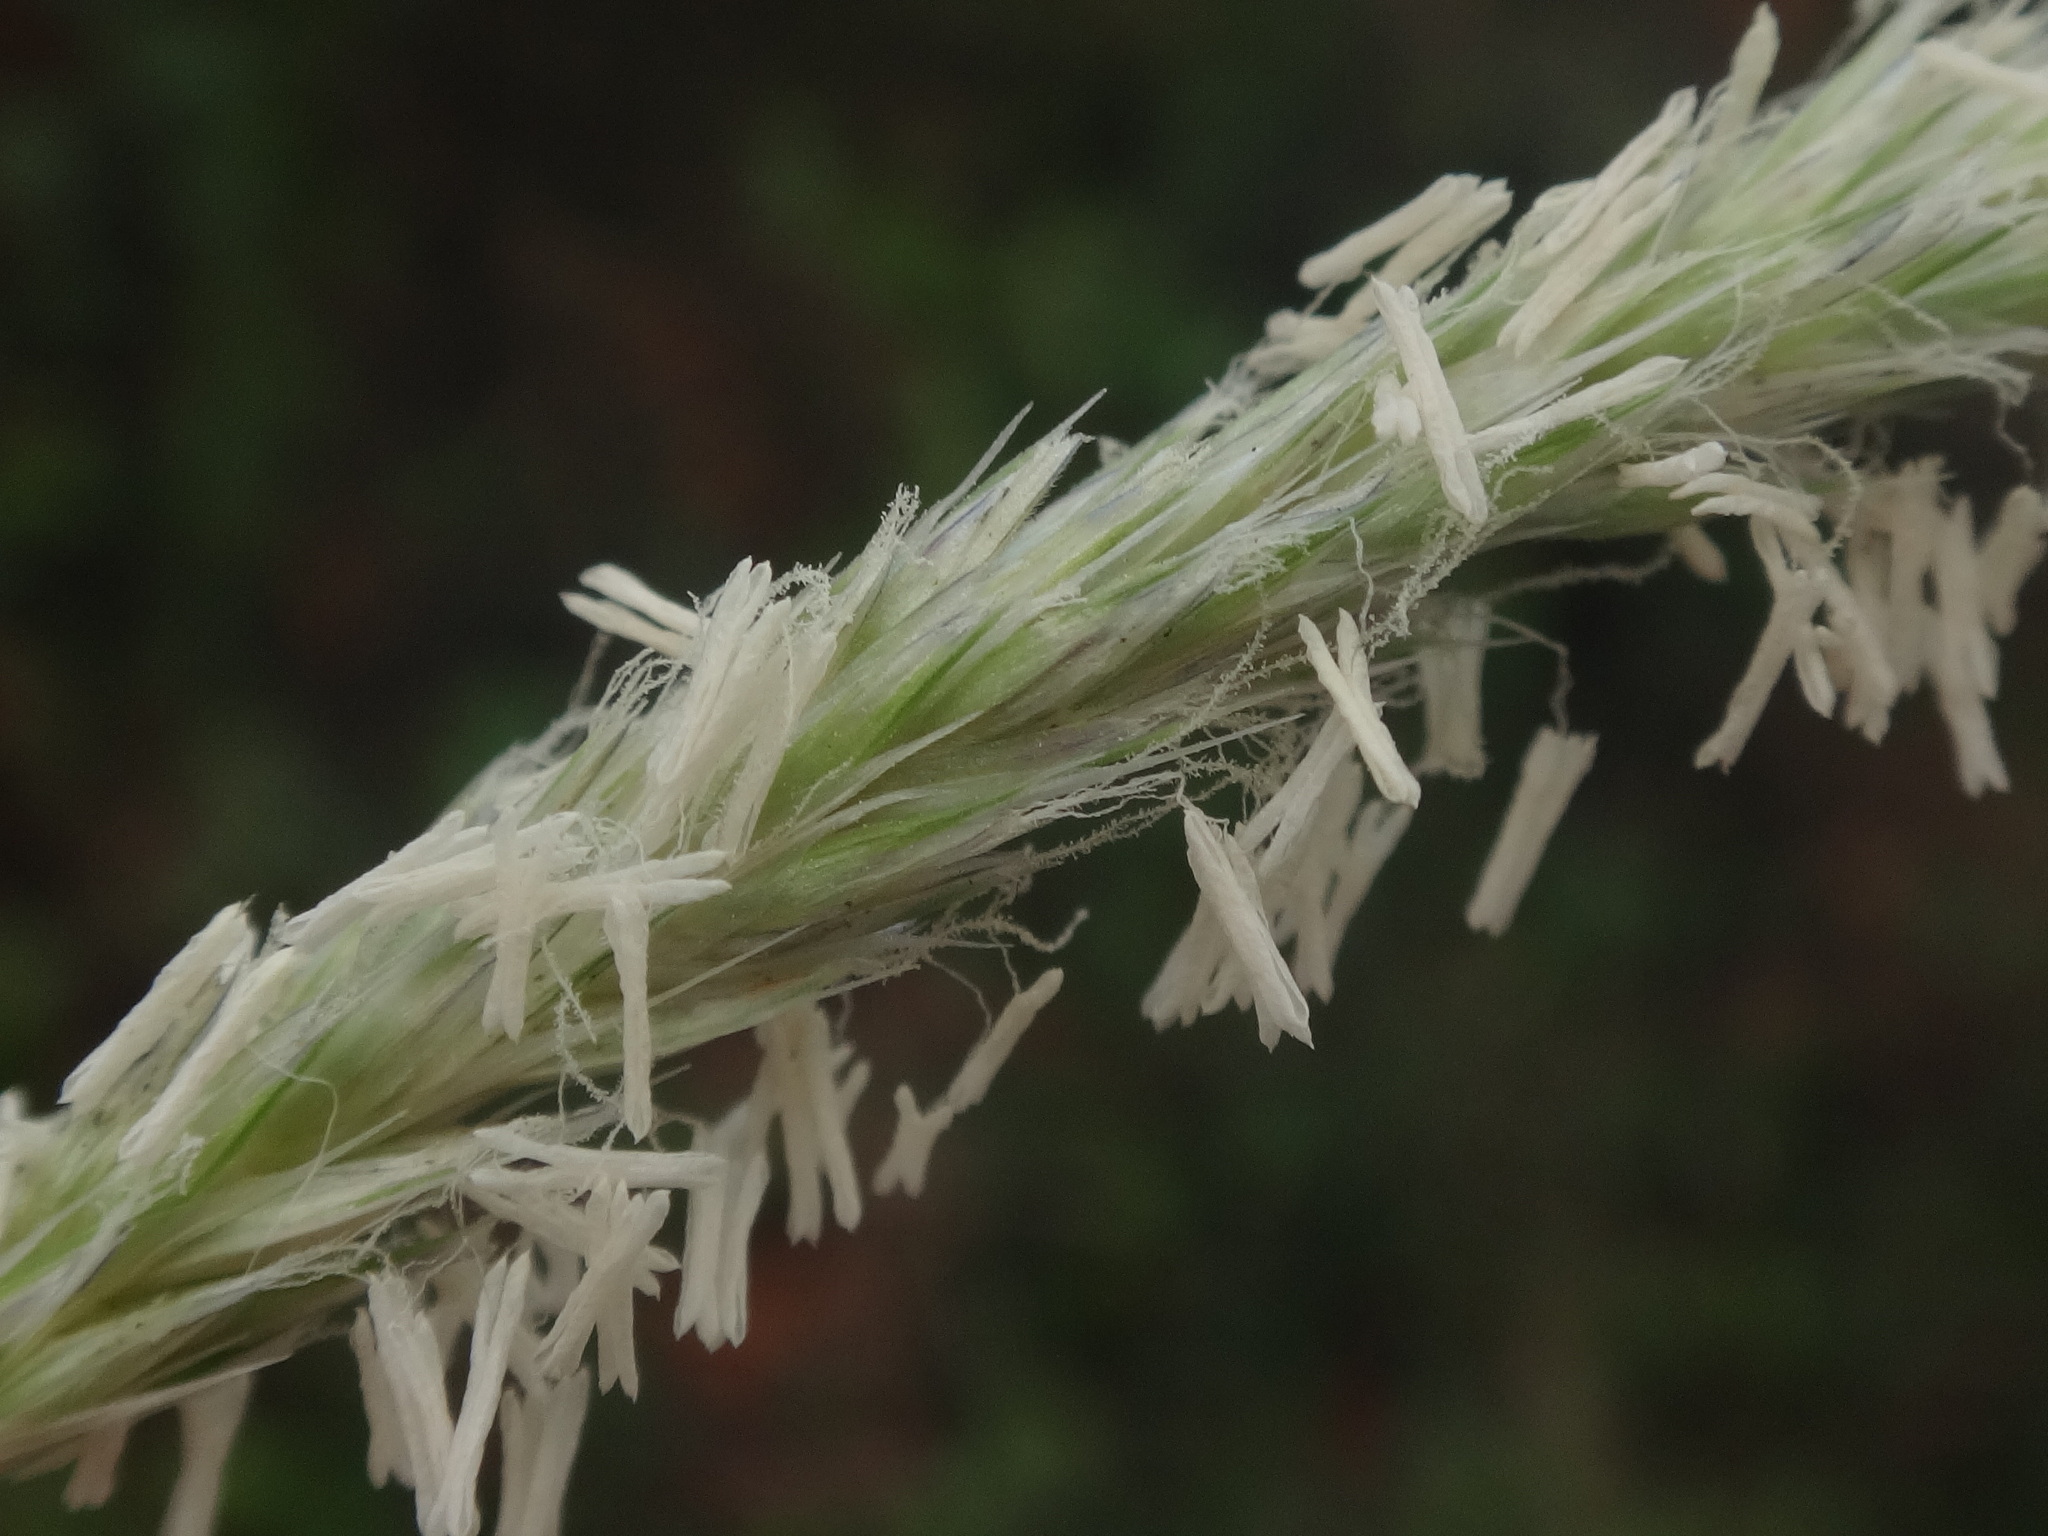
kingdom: Plantae
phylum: Tracheophyta
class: Liliopsida
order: Poales
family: Poaceae
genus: Sesleria
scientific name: Sesleria autumnalis
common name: Autumn moor grass
